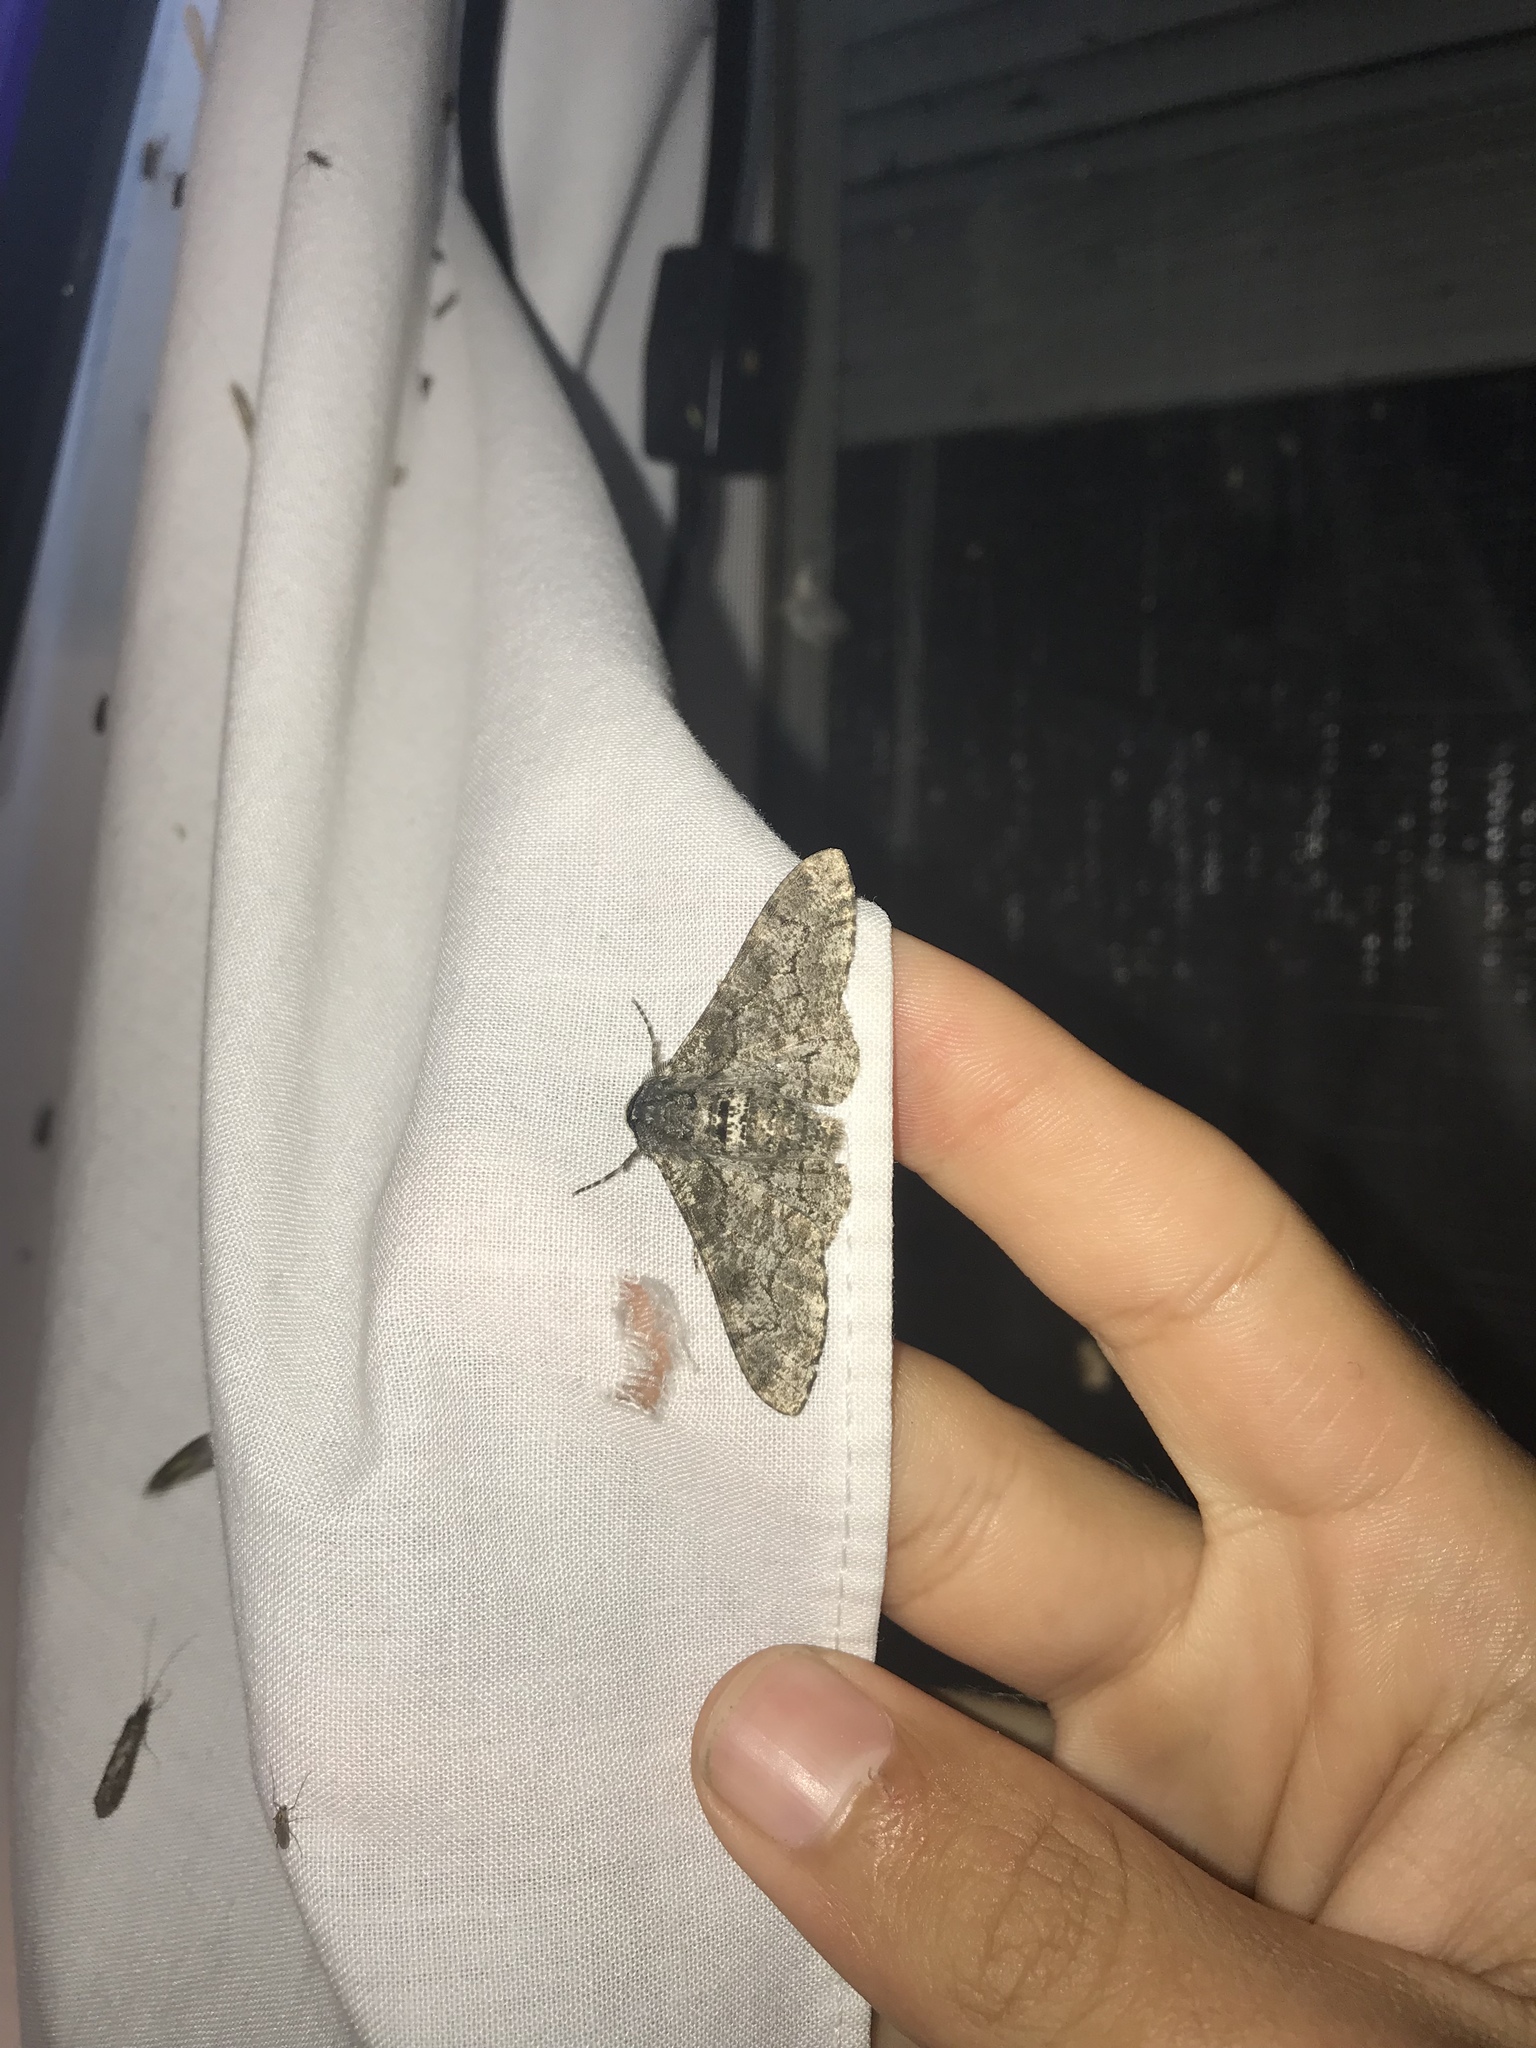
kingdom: Animalia
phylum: Arthropoda
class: Insecta
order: Lepidoptera
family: Geometridae
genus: Biston
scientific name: Biston betularia
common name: Peppered moth
